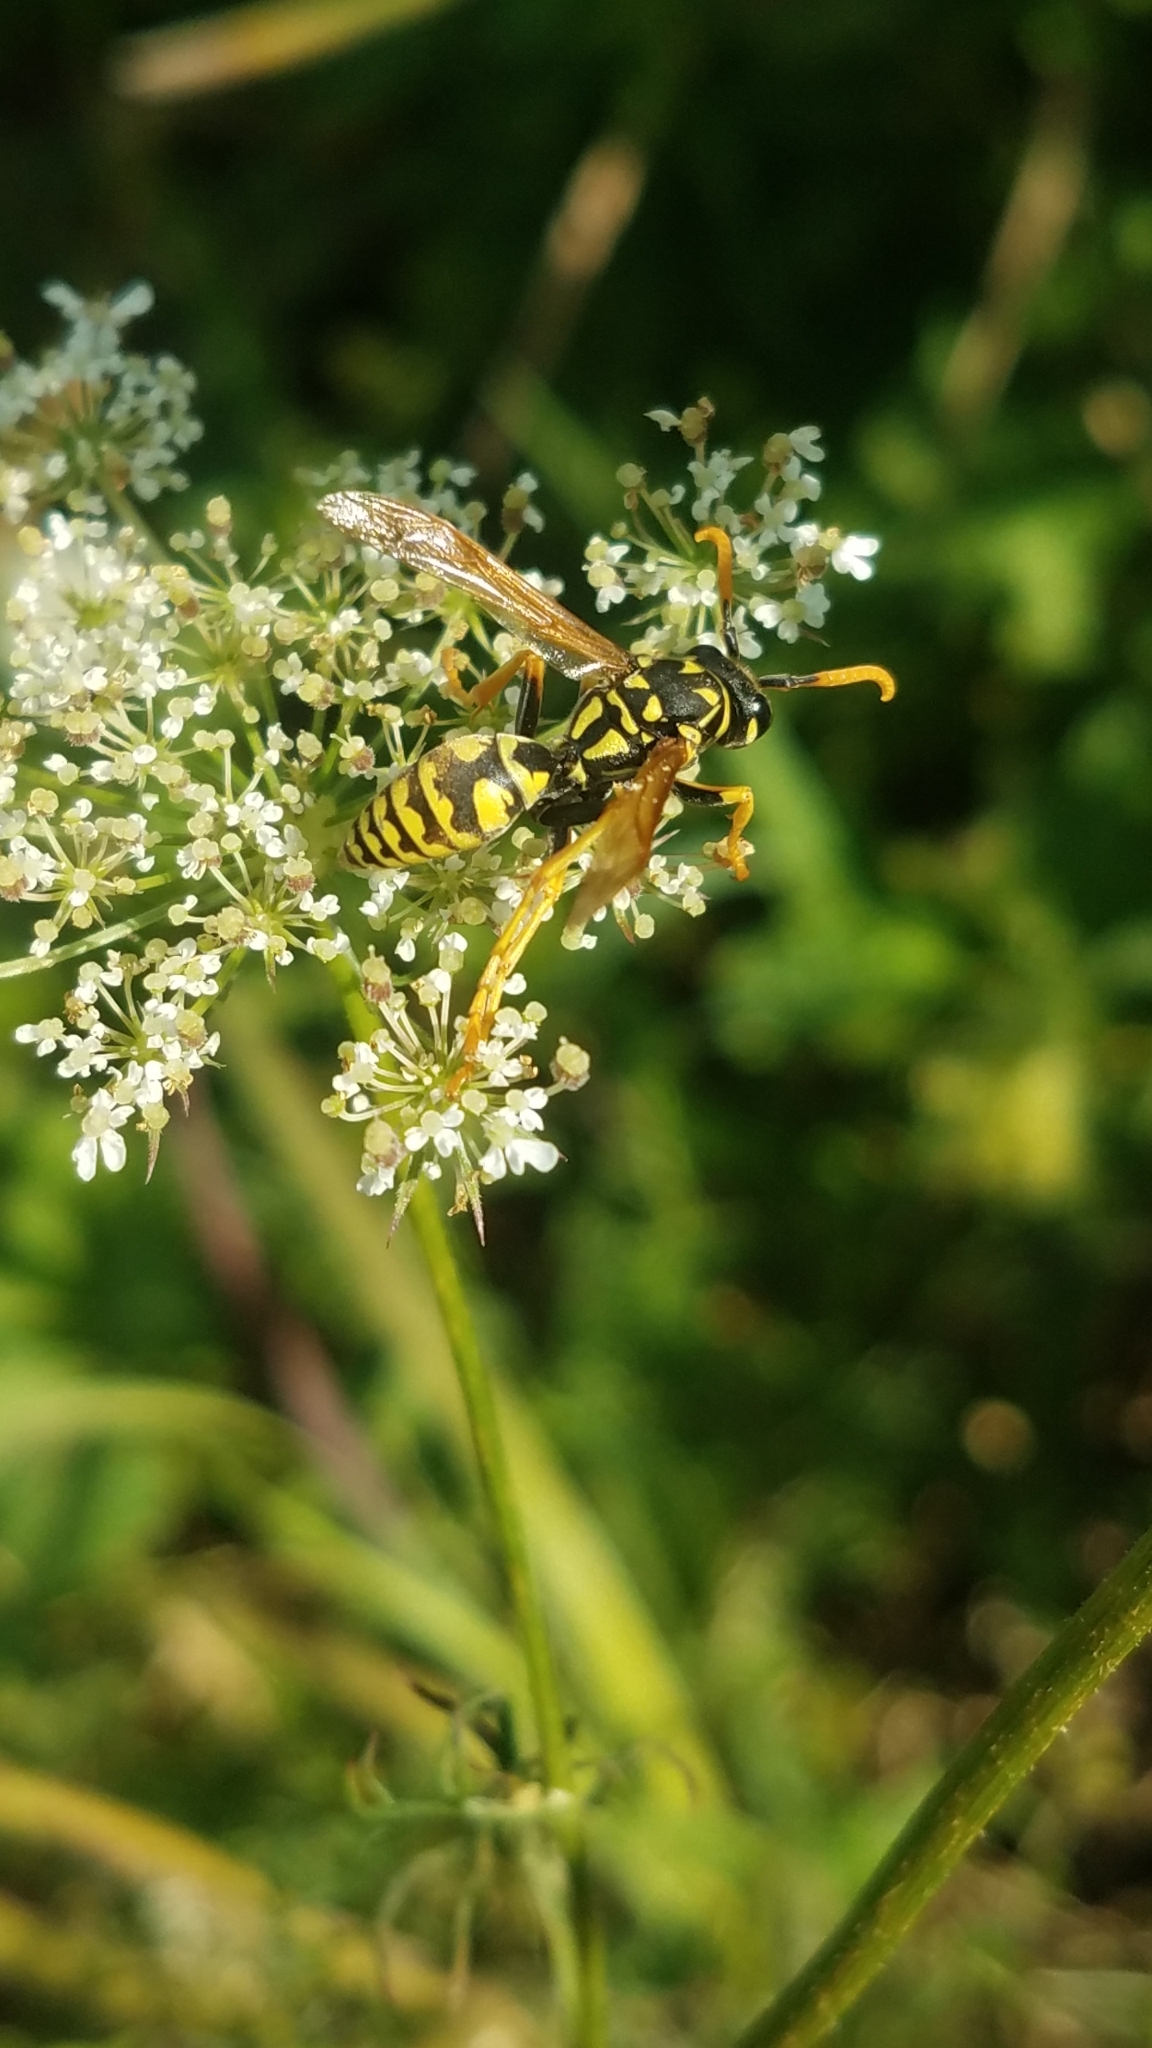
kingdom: Animalia
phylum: Arthropoda
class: Insecta
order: Hymenoptera
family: Eumenidae
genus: Polistes
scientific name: Polistes dominula
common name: Paper wasp
